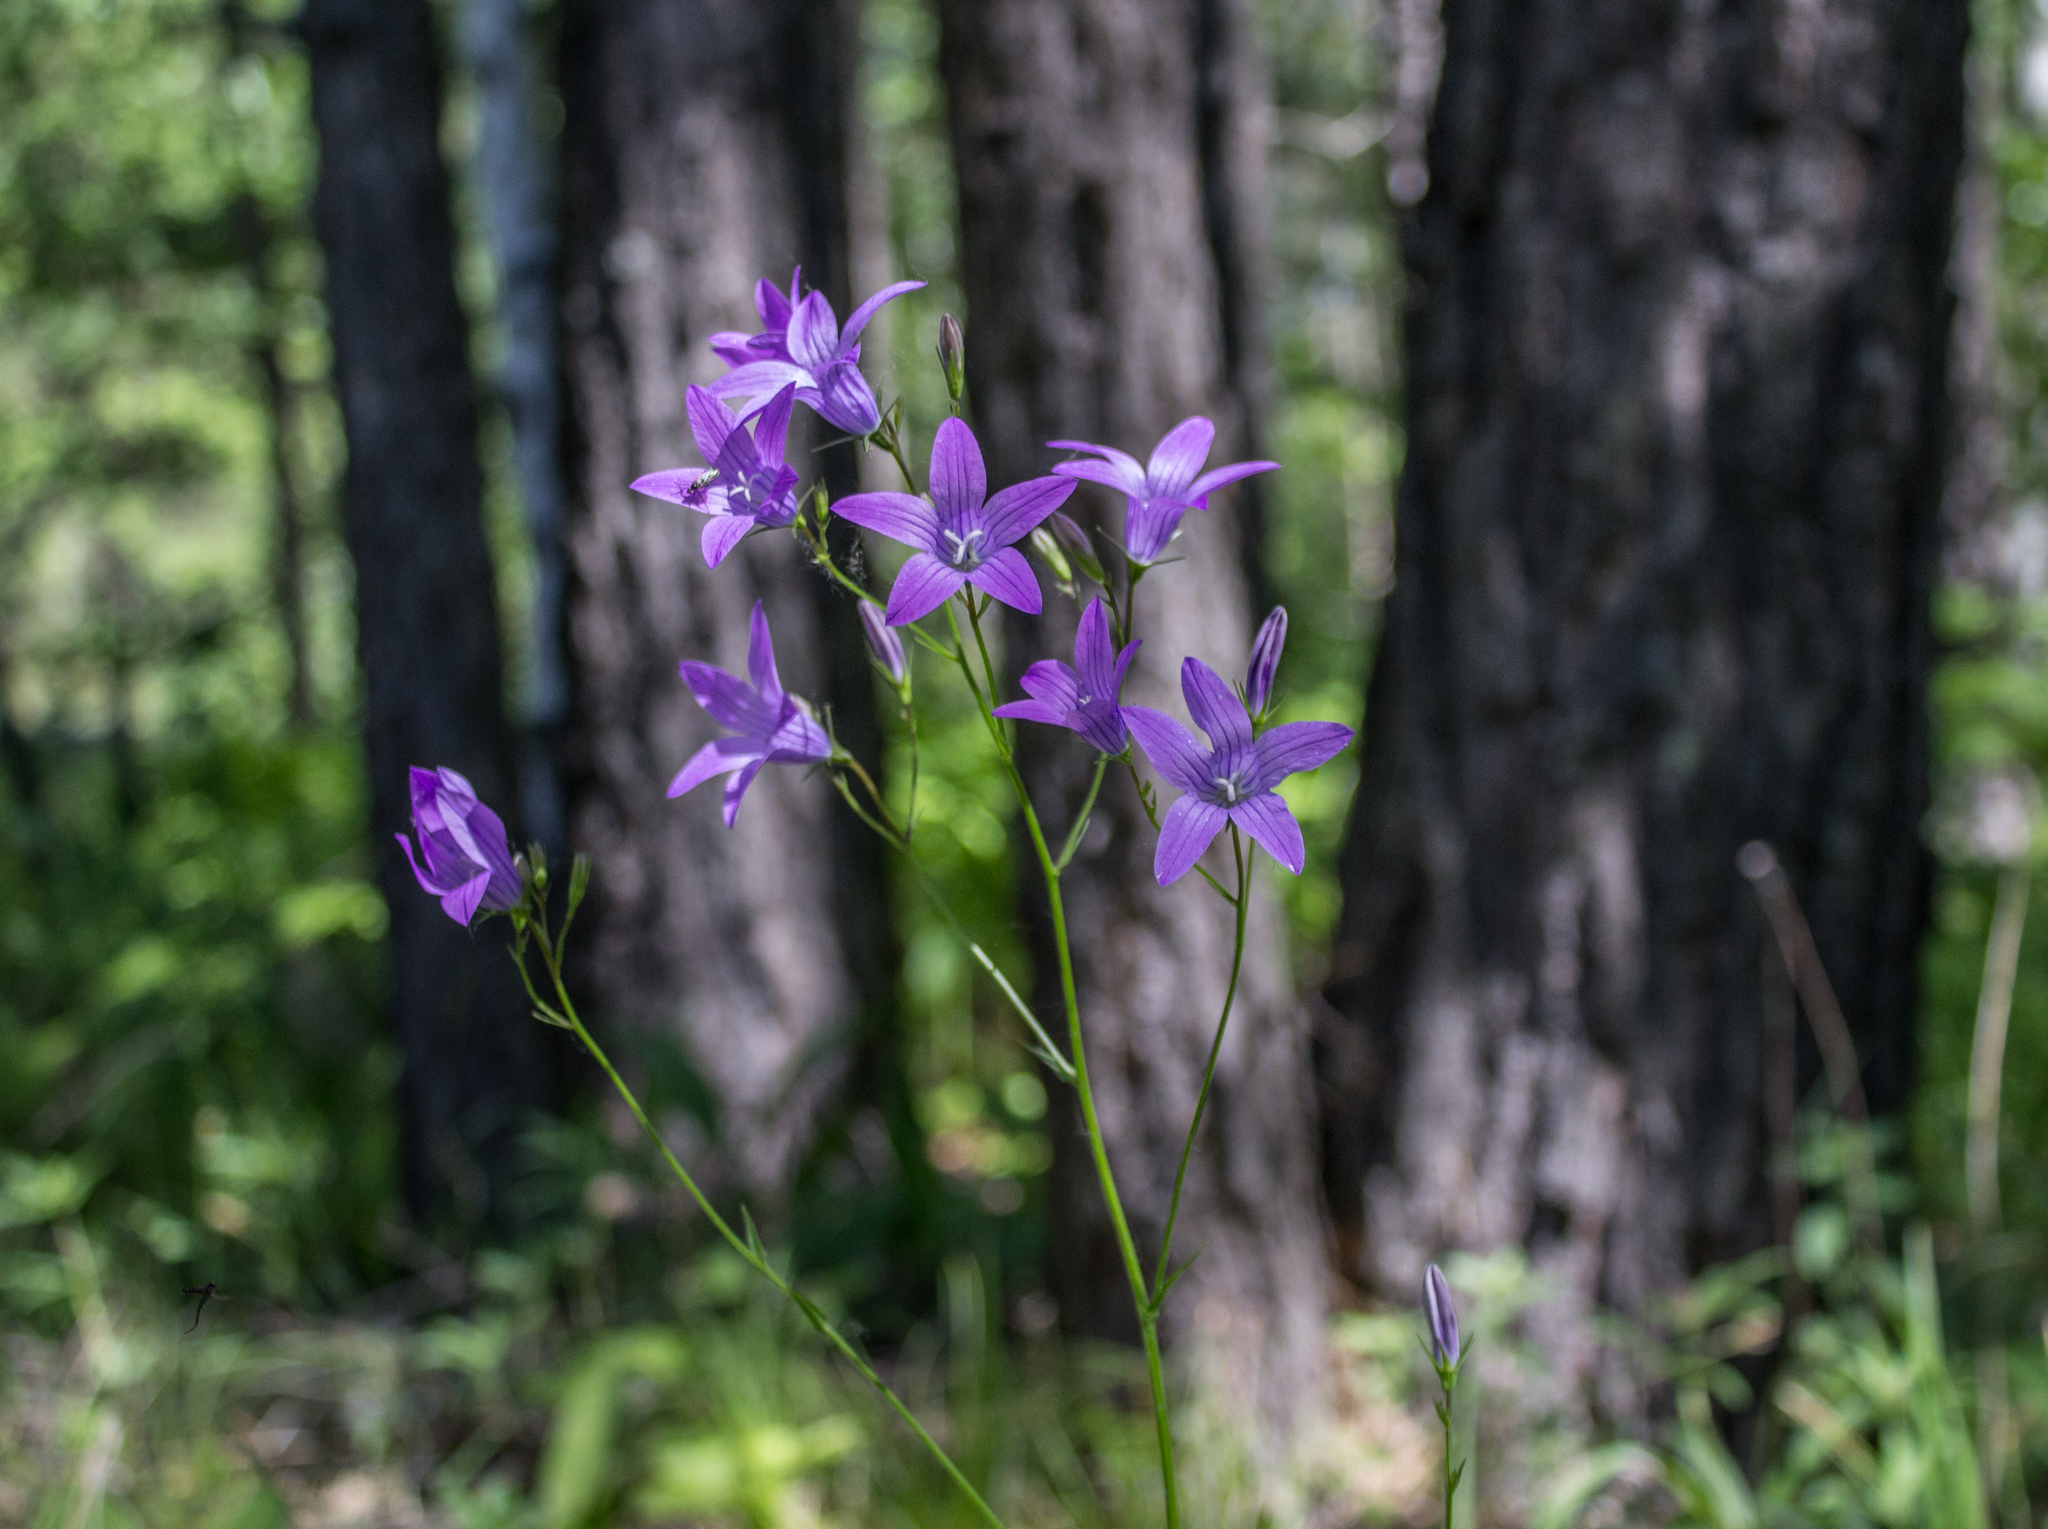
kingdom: Plantae
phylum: Tracheophyta
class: Magnoliopsida
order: Asterales
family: Campanulaceae
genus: Campanula
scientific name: Campanula patula
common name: Spreading bellflower
